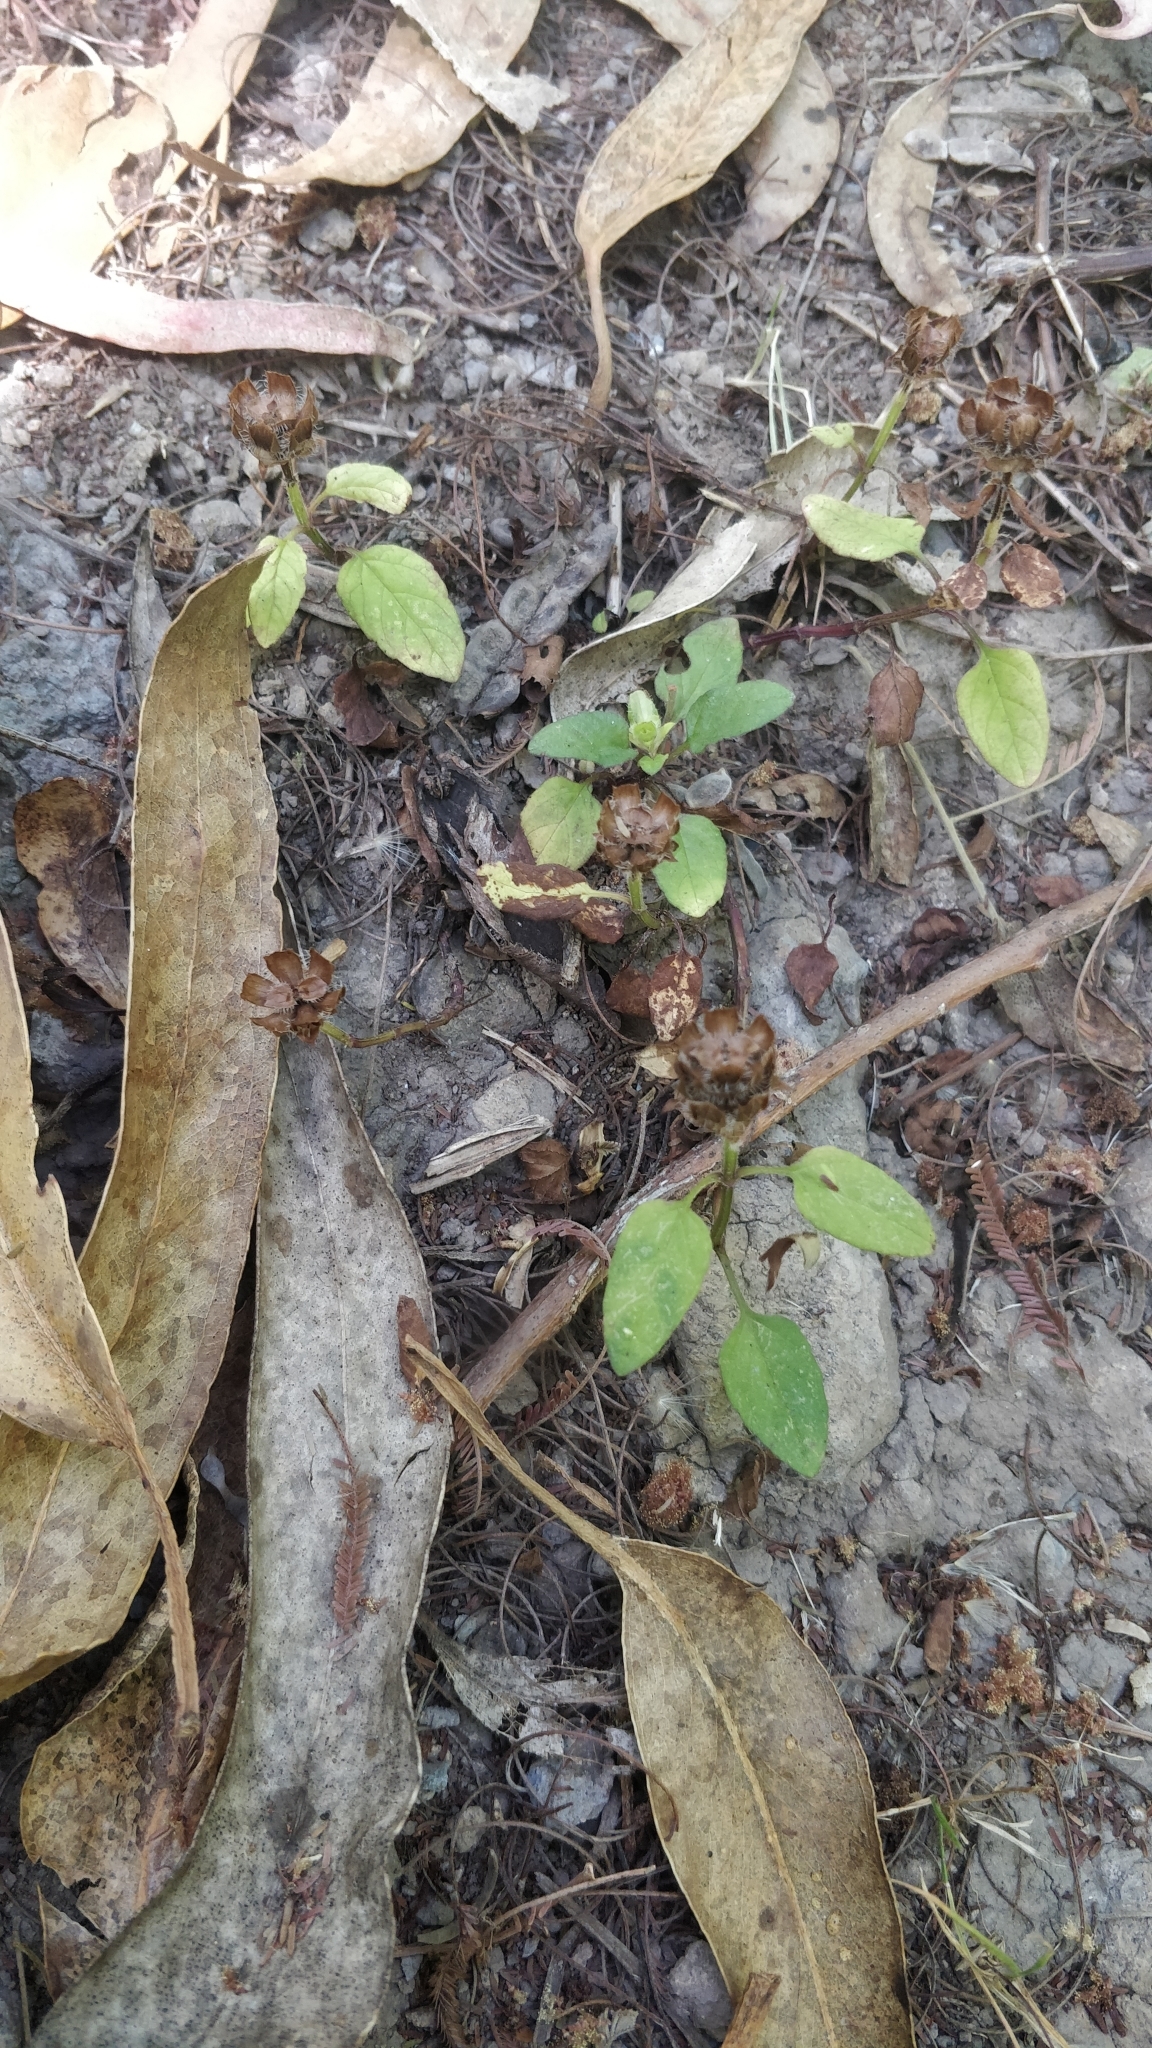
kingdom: Plantae
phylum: Tracheophyta
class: Magnoliopsida
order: Lamiales
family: Lamiaceae
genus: Prunella
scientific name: Prunella vulgaris
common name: Heal-all
